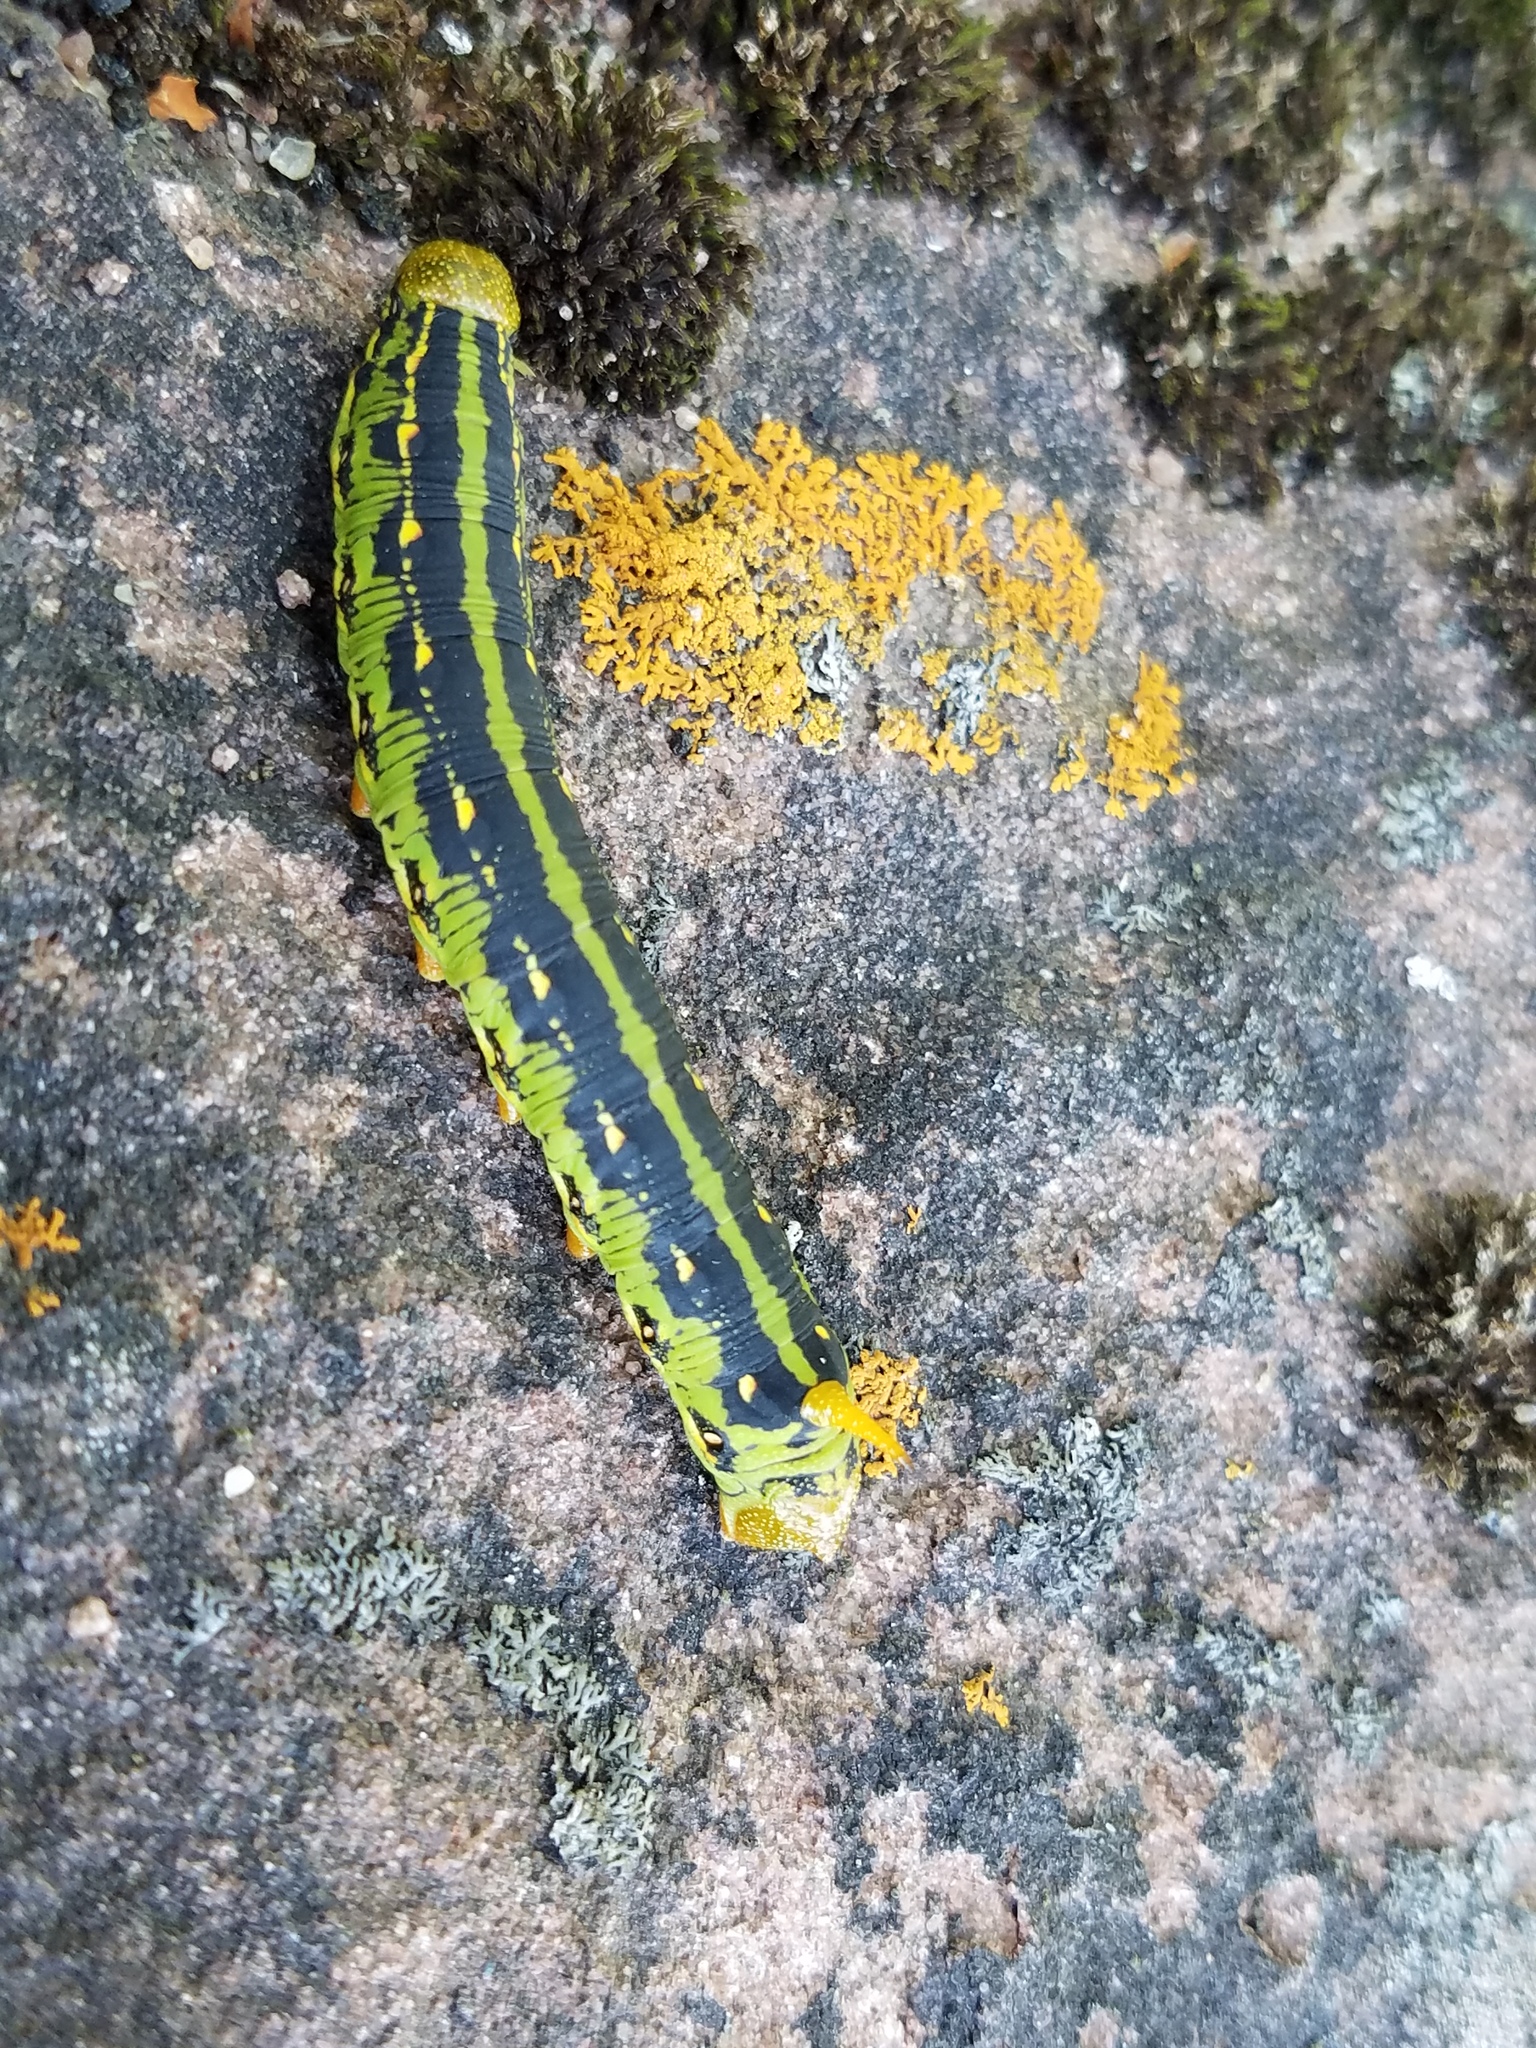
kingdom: Animalia
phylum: Arthropoda
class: Insecta
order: Lepidoptera
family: Sphingidae
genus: Hyles
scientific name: Hyles lineata
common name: White-lined sphinx
